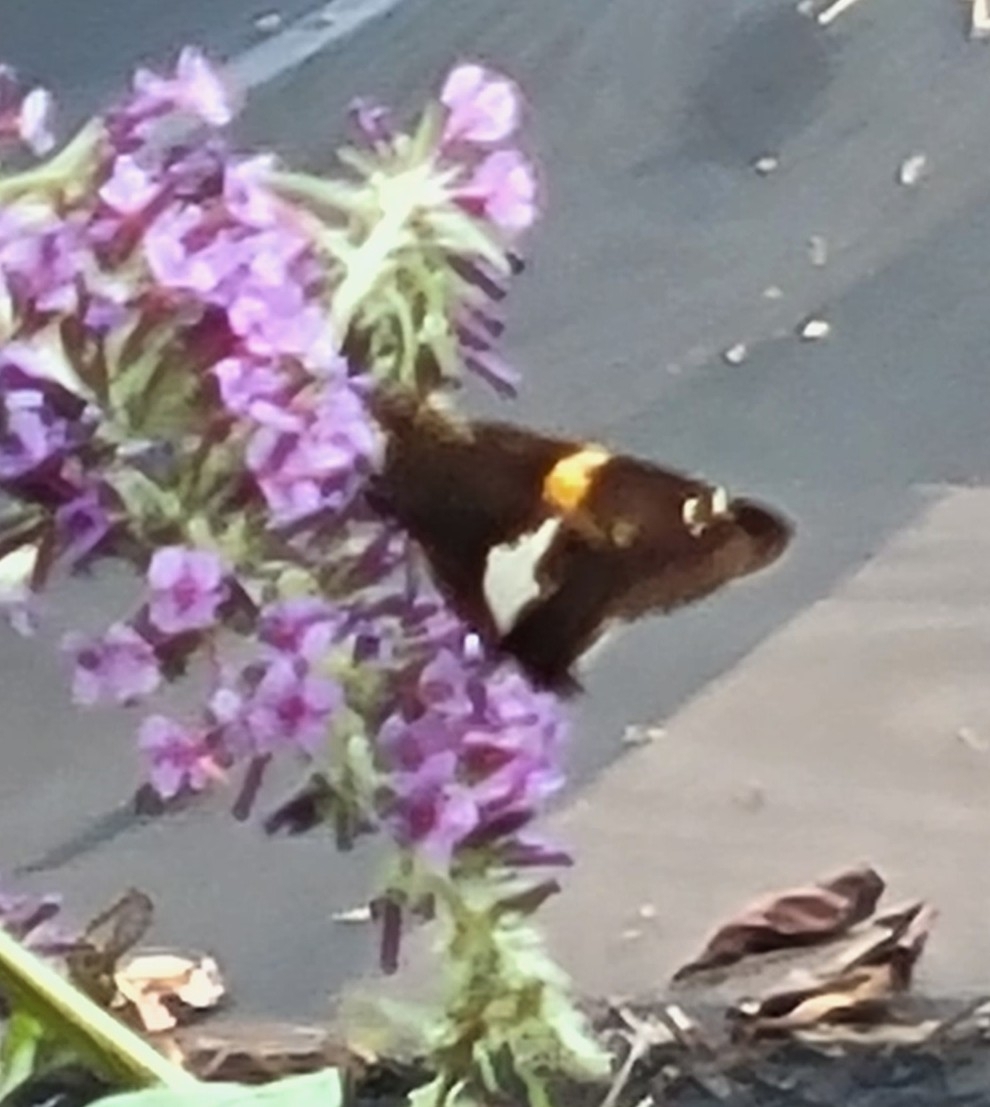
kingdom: Animalia
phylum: Arthropoda
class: Insecta
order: Lepidoptera
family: Hesperiidae
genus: Epargyreus
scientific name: Epargyreus clarus
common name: Silver-spotted skipper
